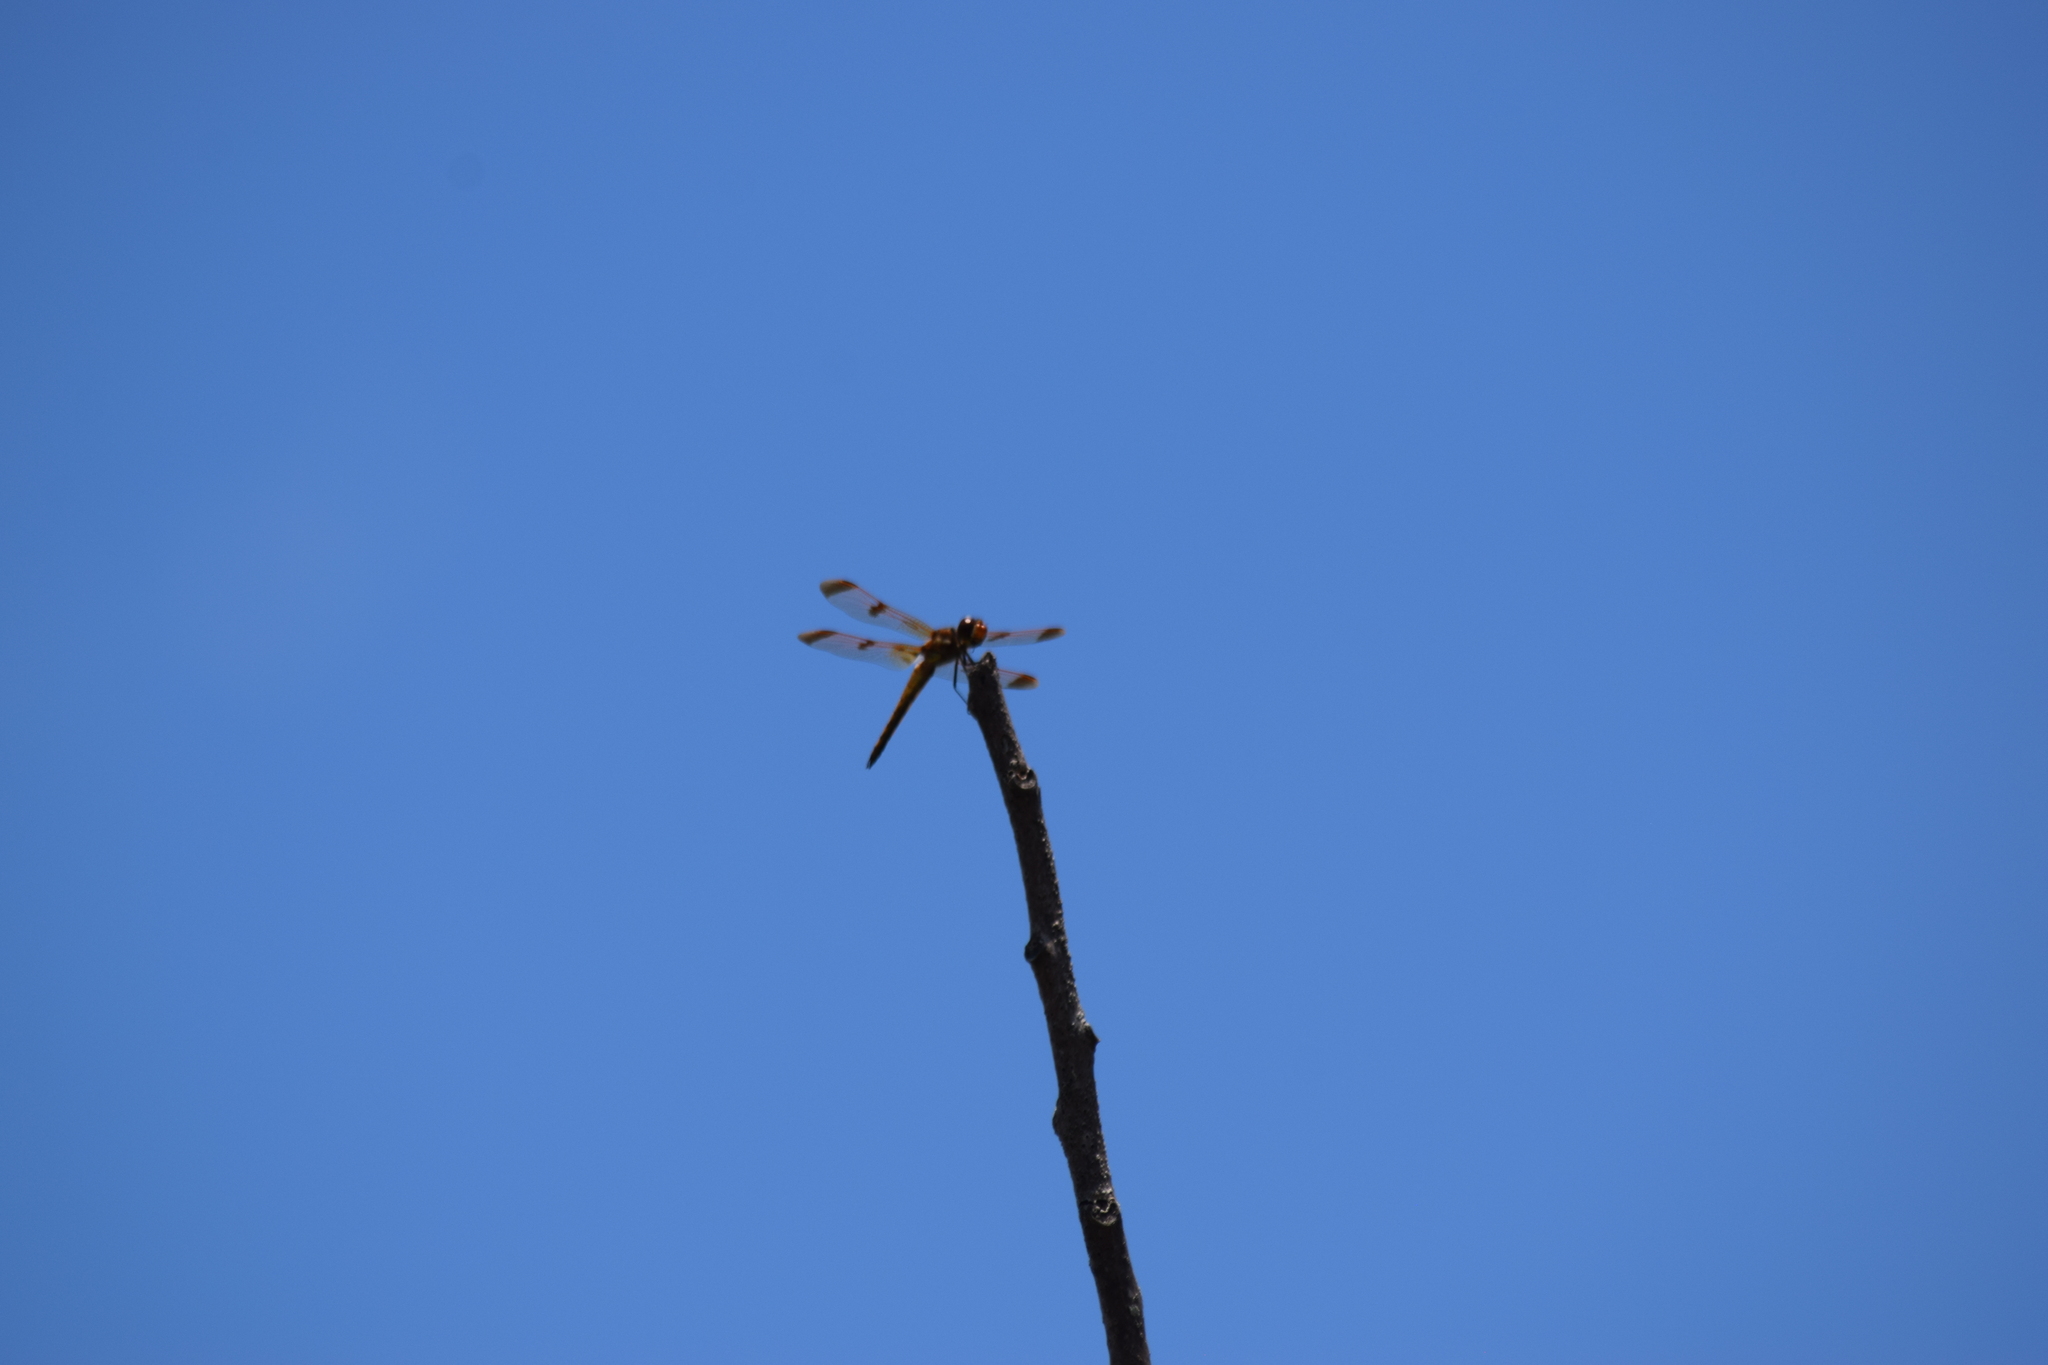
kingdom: Animalia
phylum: Arthropoda
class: Insecta
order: Odonata
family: Libellulidae
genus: Libellula
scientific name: Libellula semifasciata
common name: Painted skimmer
